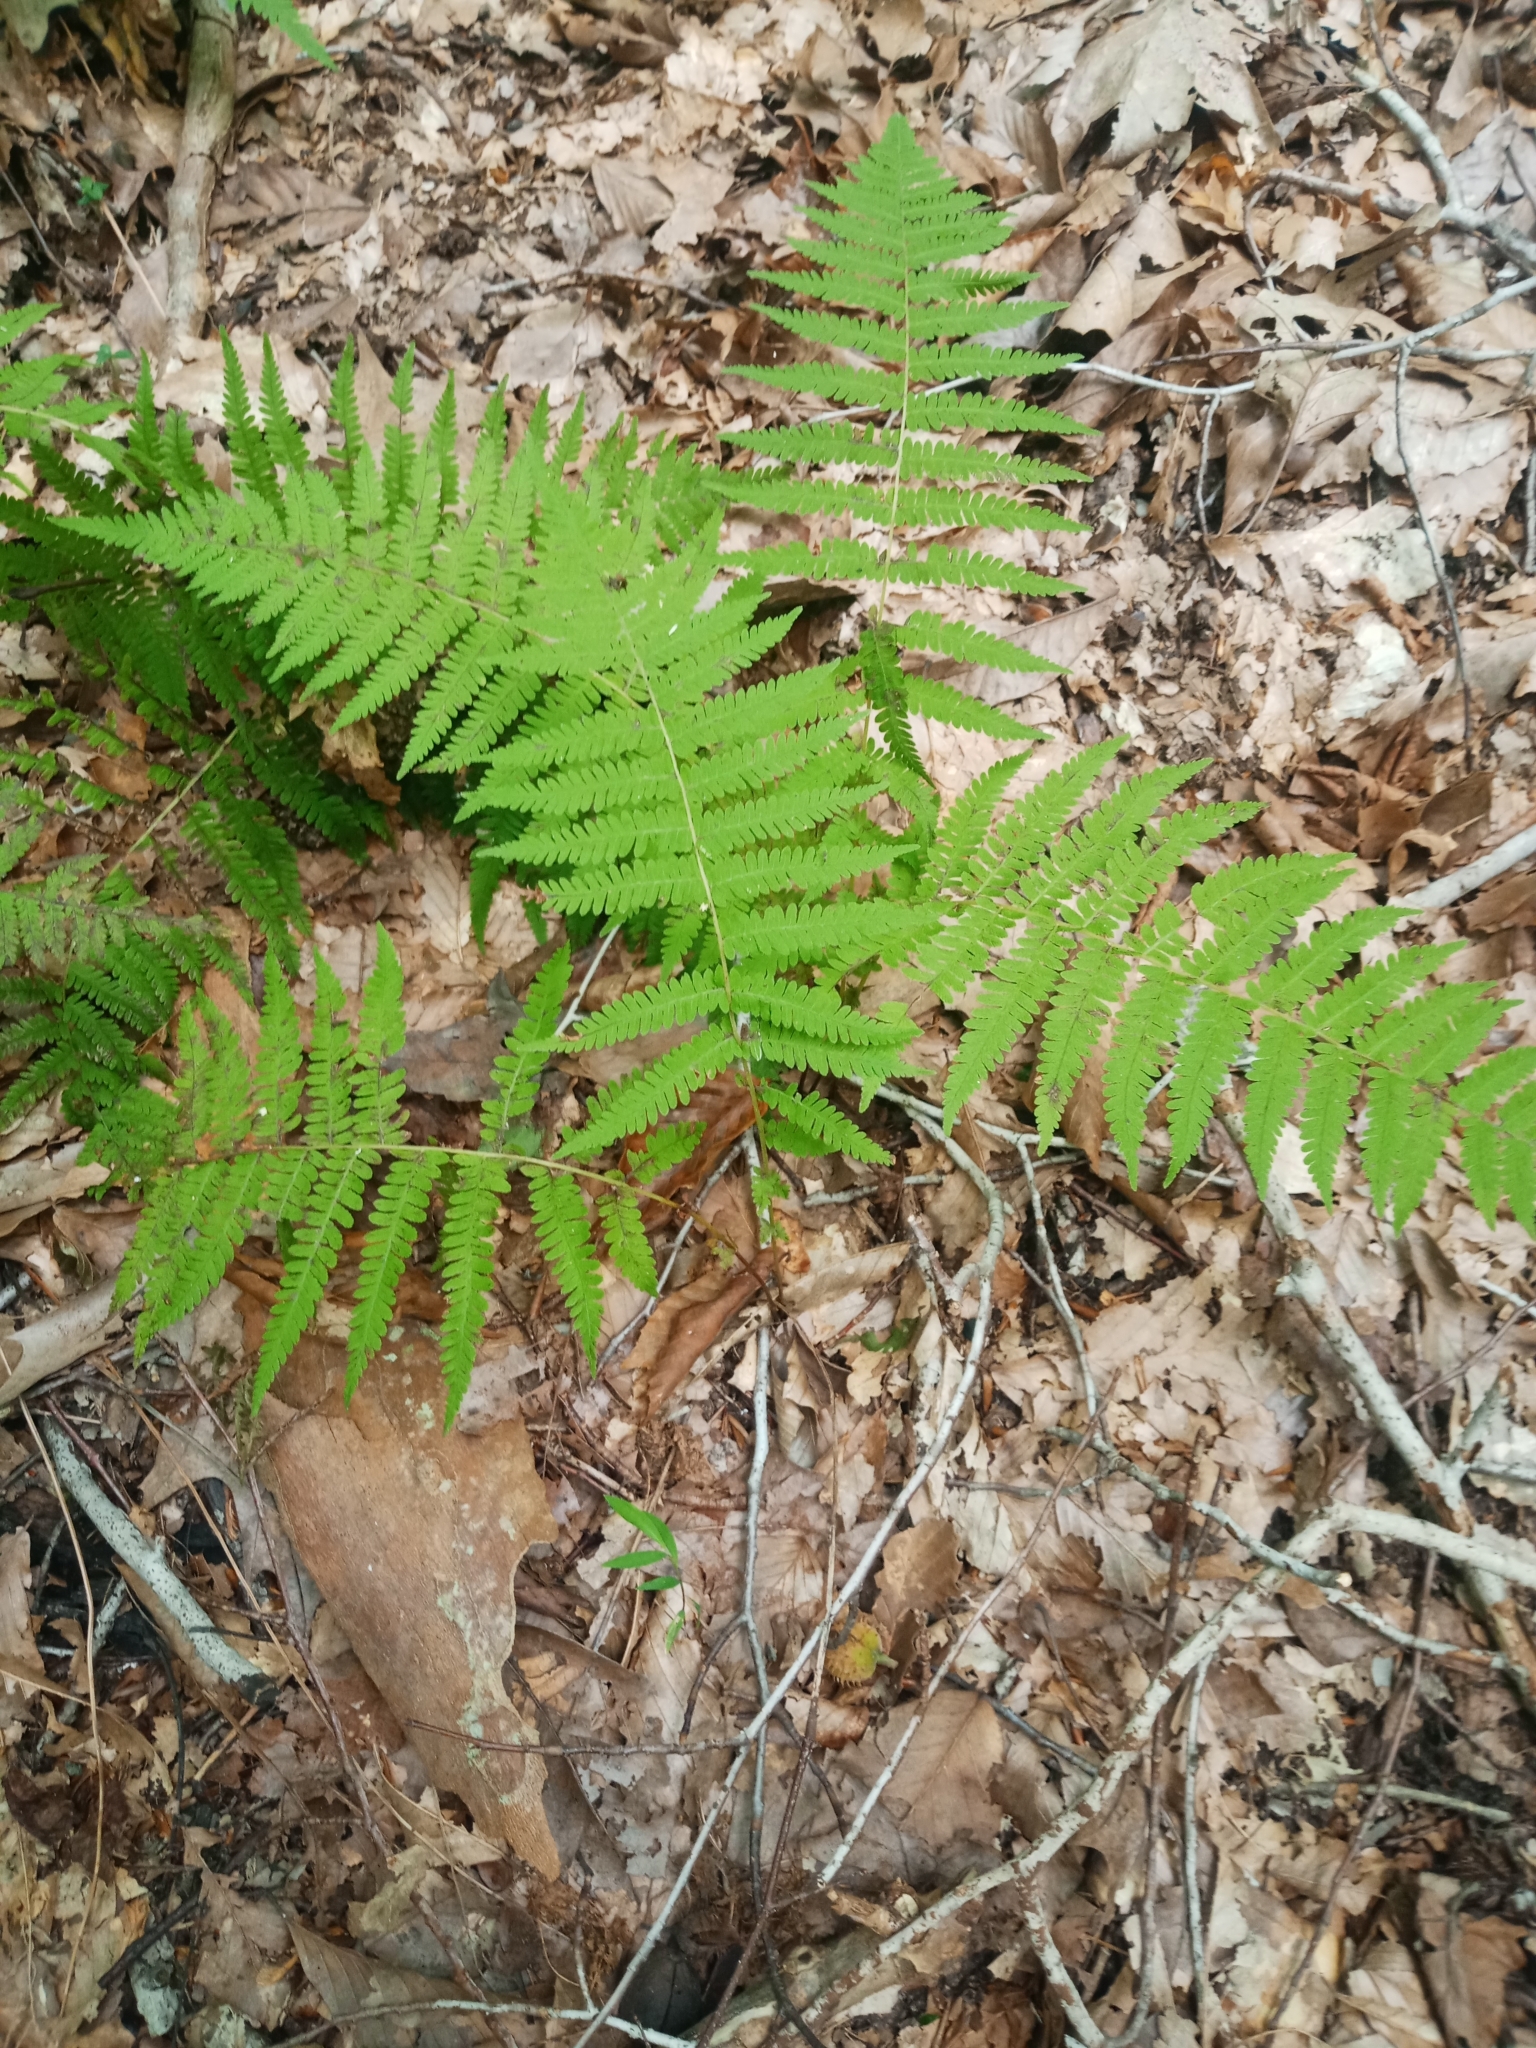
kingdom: Plantae
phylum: Tracheophyta
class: Polypodiopsida
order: Polypodiales
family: Thelypteridaceae
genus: Amauropelta
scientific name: Amauropelta noveboracensis
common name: New york fern
